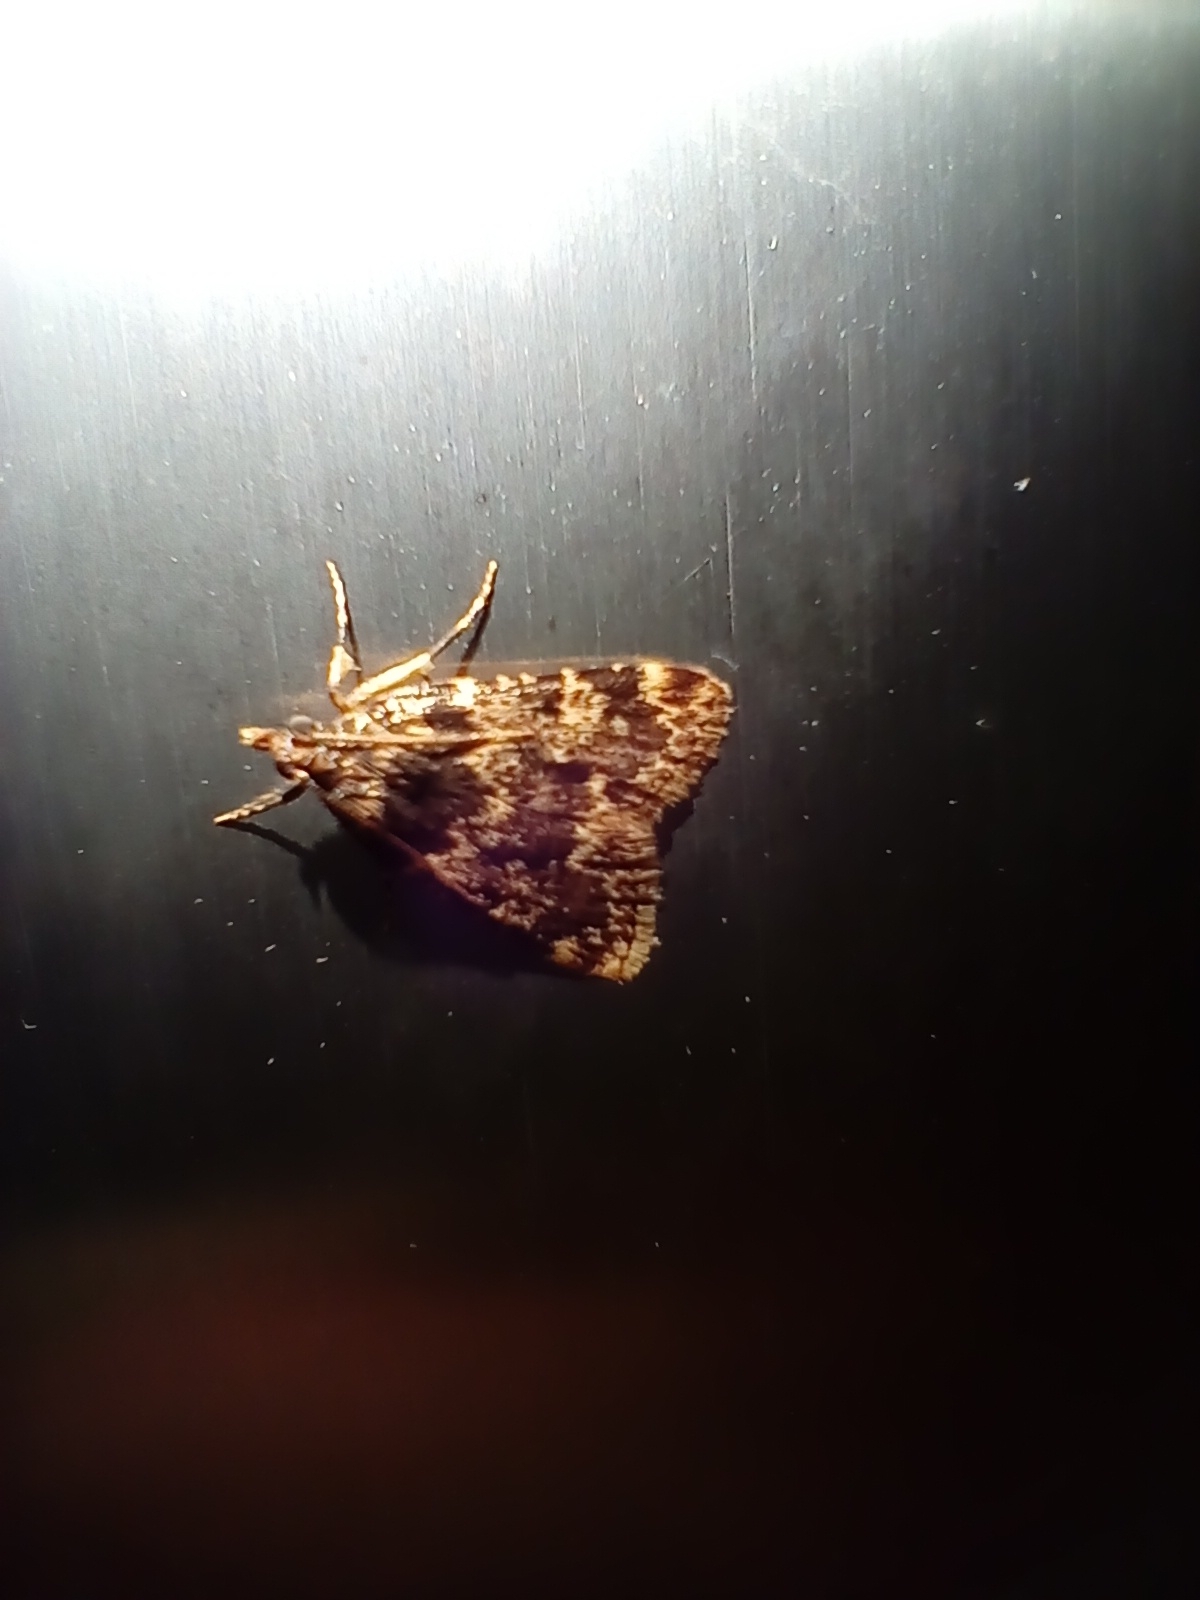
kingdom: Animalia
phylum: Arthropoda
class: Insecta
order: Lepidoptera
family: Pyralidae
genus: Aglossa
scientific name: Aglossa caprealis
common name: Small tabby
